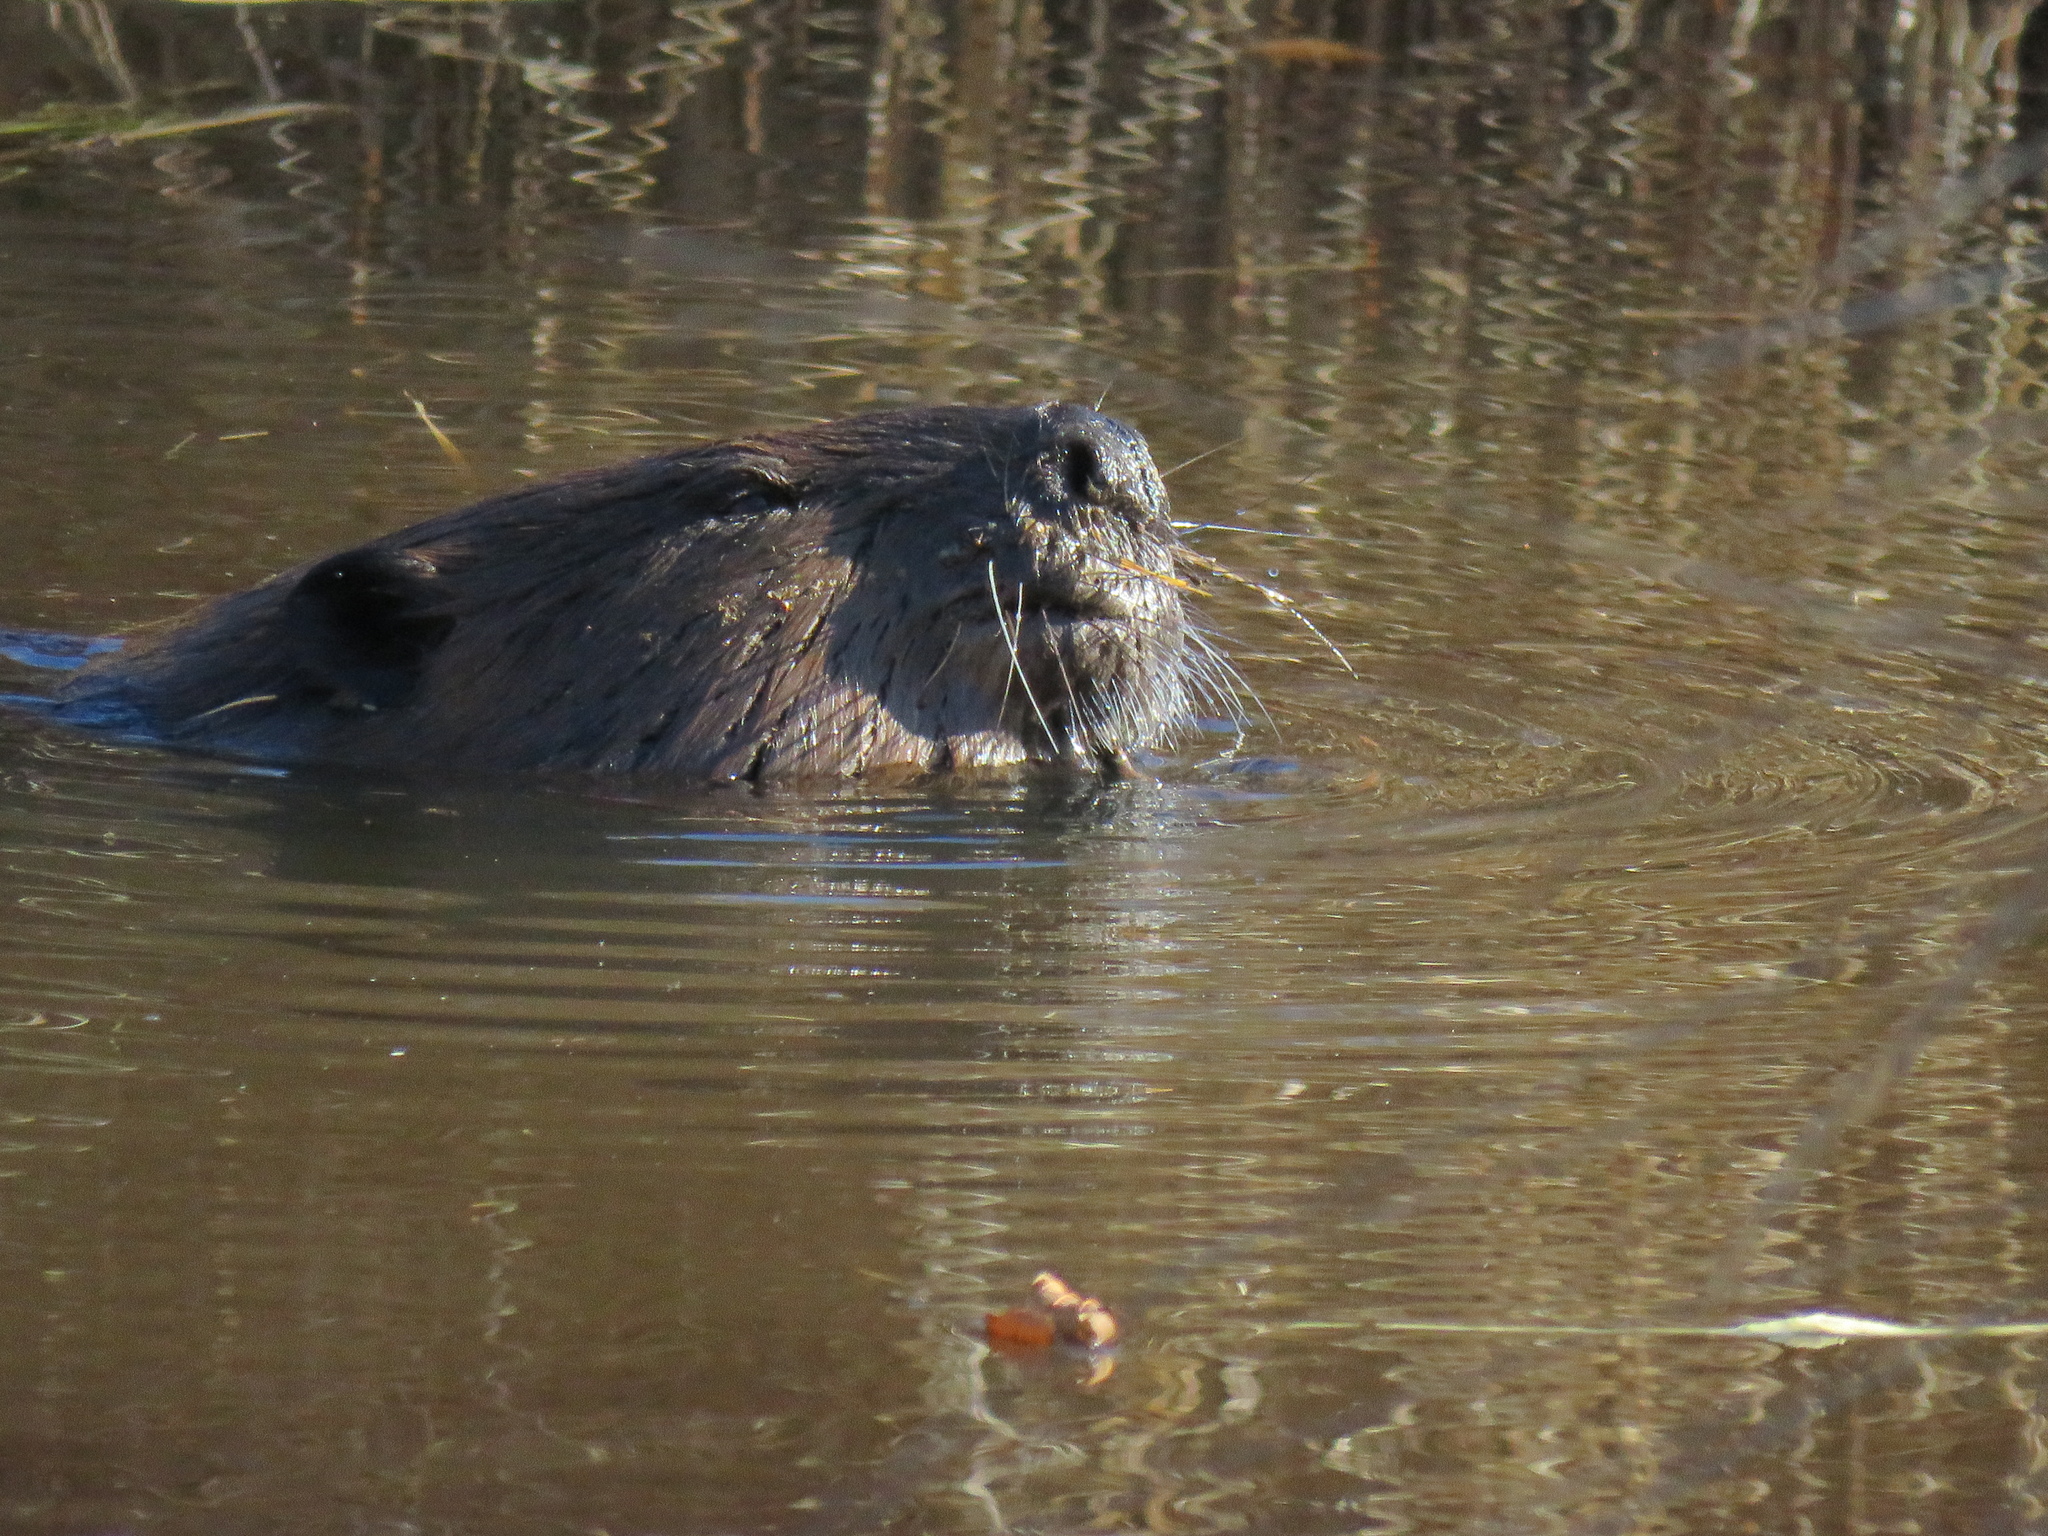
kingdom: Animalia
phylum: Chordata
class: Mammalia
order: Rodentia
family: Castoridae
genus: Castor
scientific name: Castor canadensis
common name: American beaver
